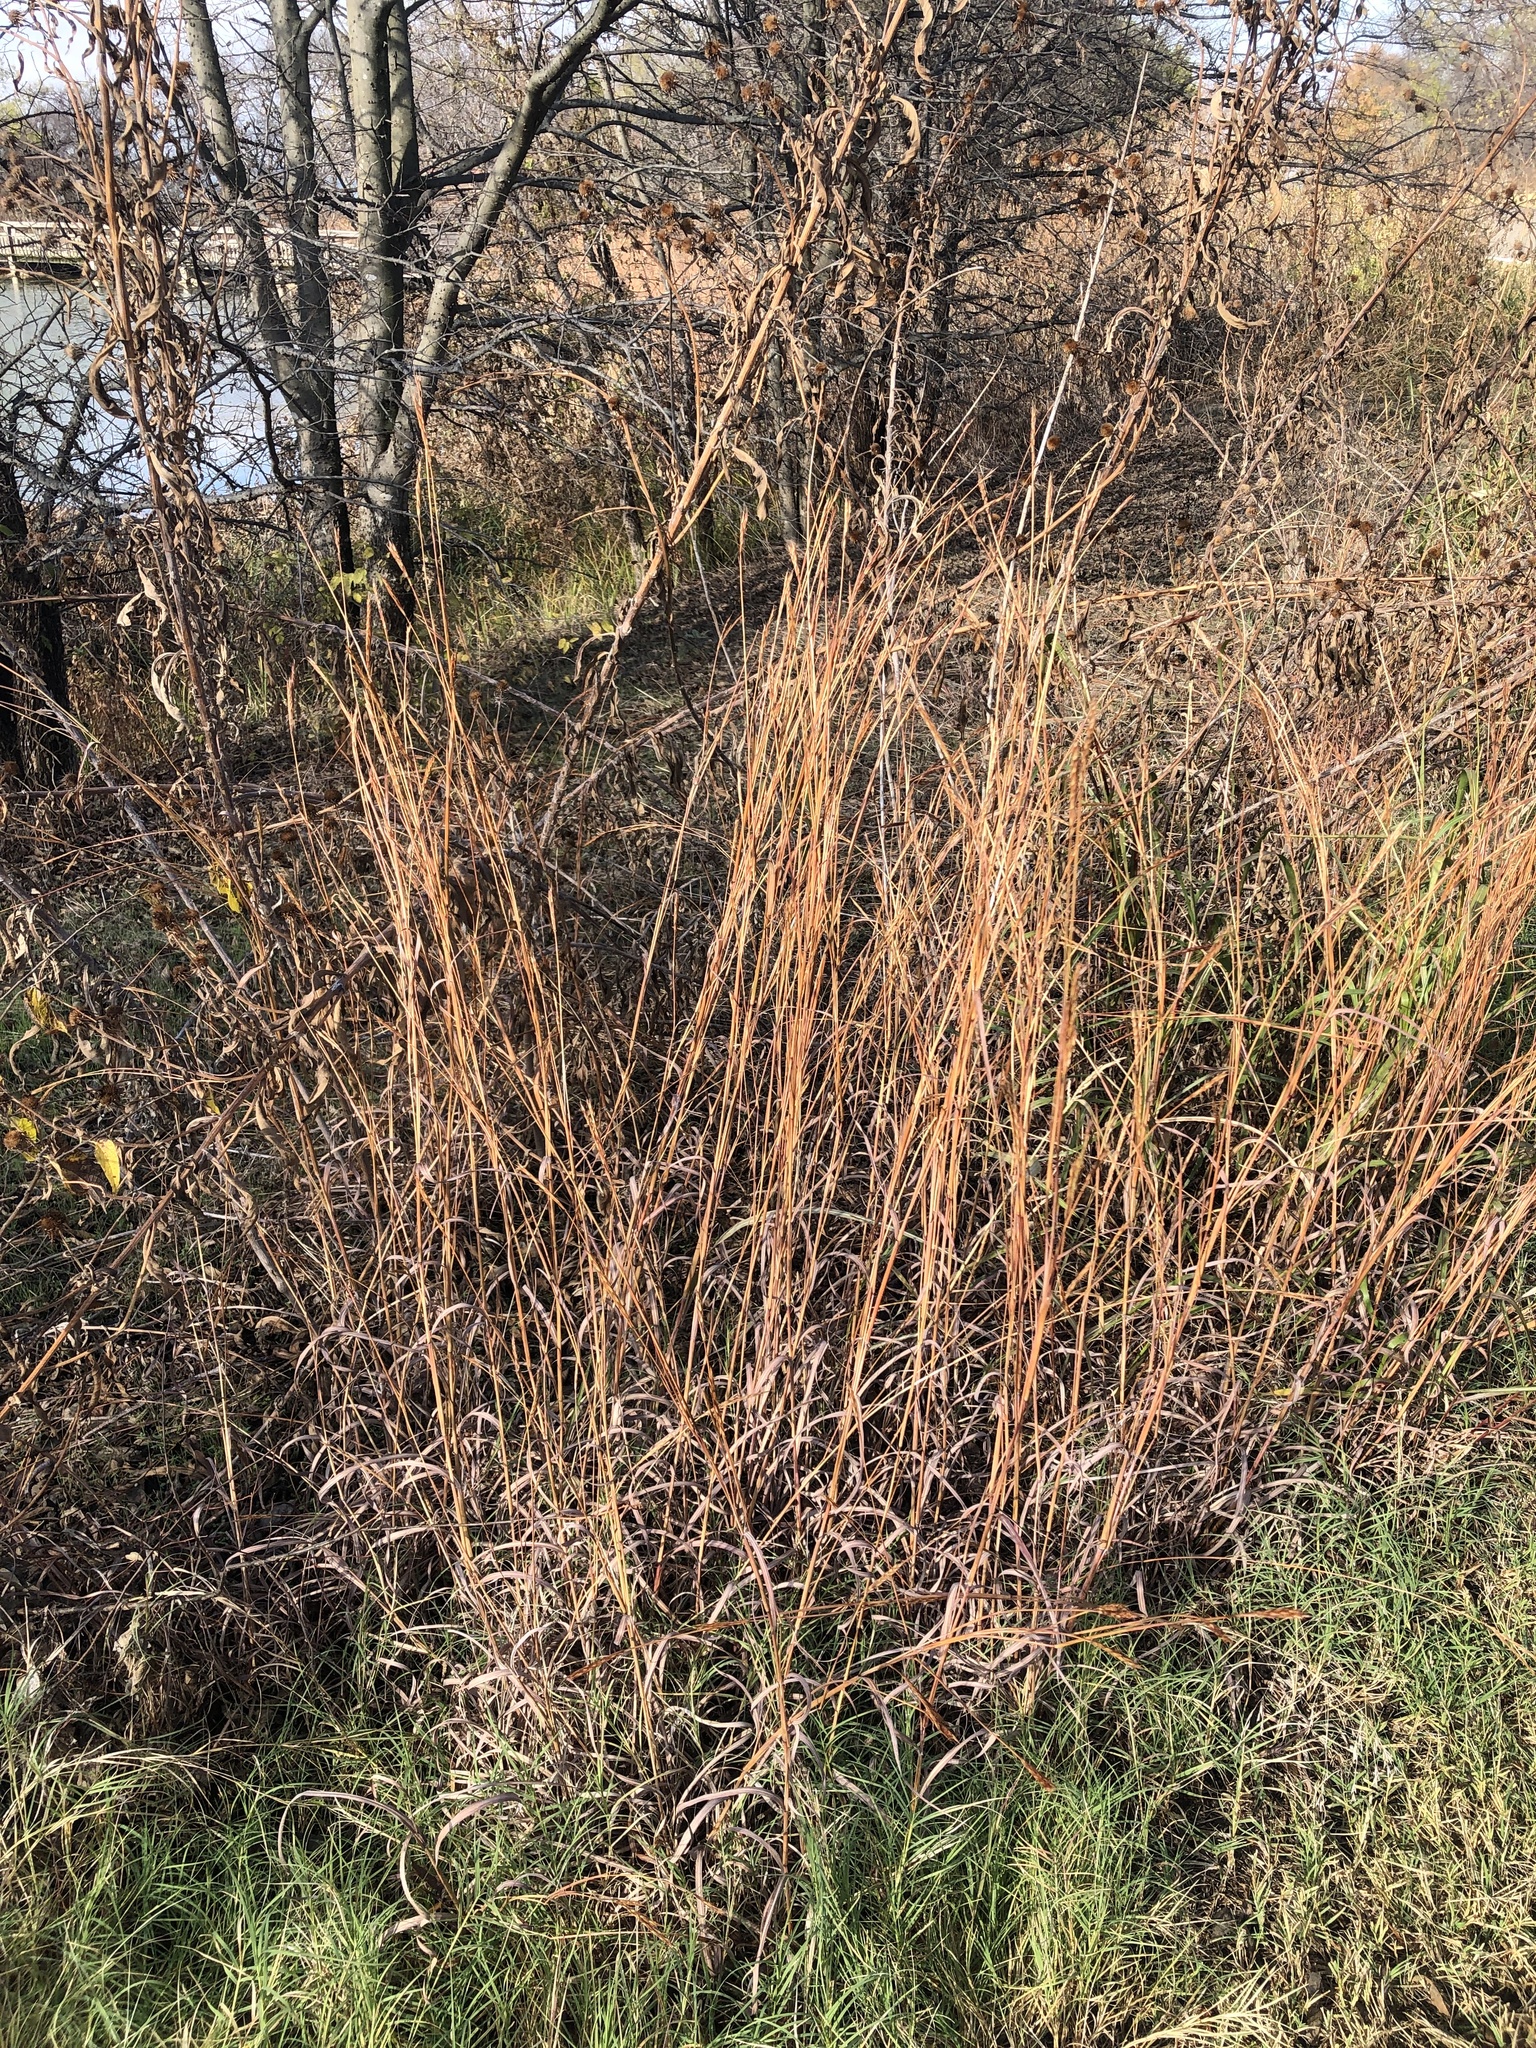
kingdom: Plantae
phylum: Tracheophyta
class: Liliopsida
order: Poales
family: Poaceae
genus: Andropogon
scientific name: Andropogon gerardi
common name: Big bluestem
